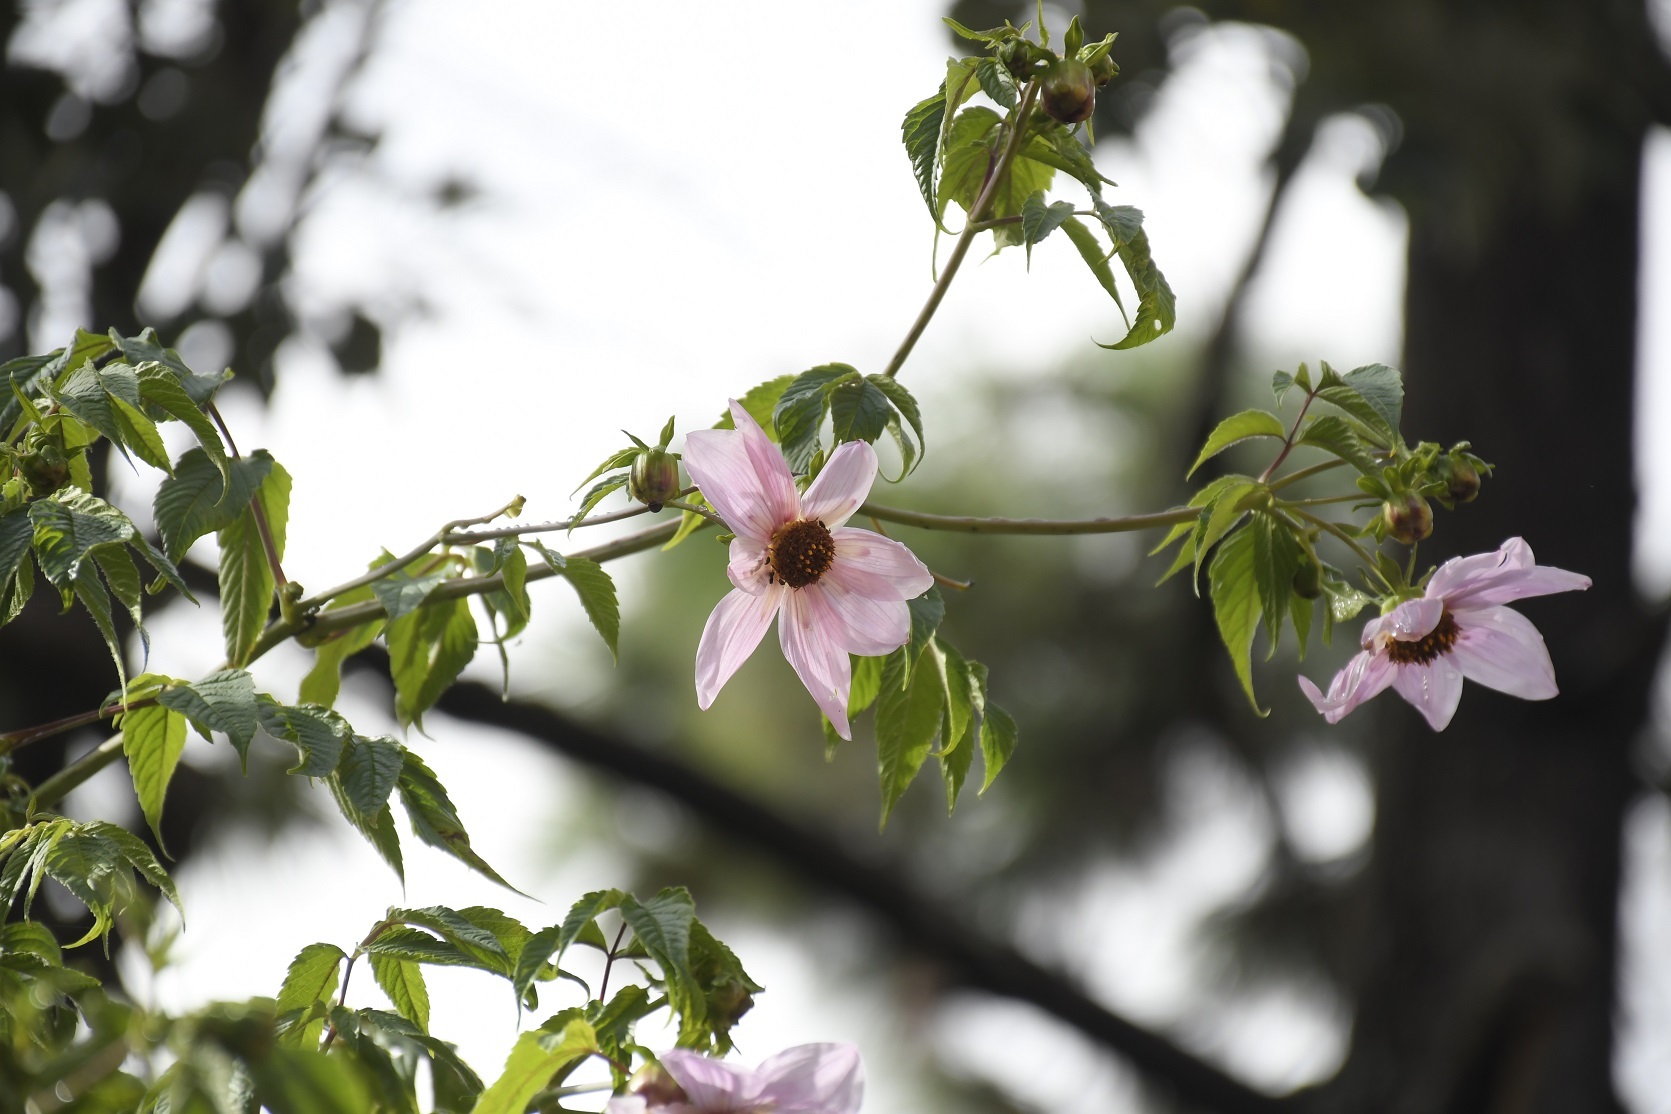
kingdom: Plantae
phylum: Tracheophyta
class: Magnoliopsida
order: Asterales
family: Asteraceae
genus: Dahlia
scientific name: Dahlia imperialis
